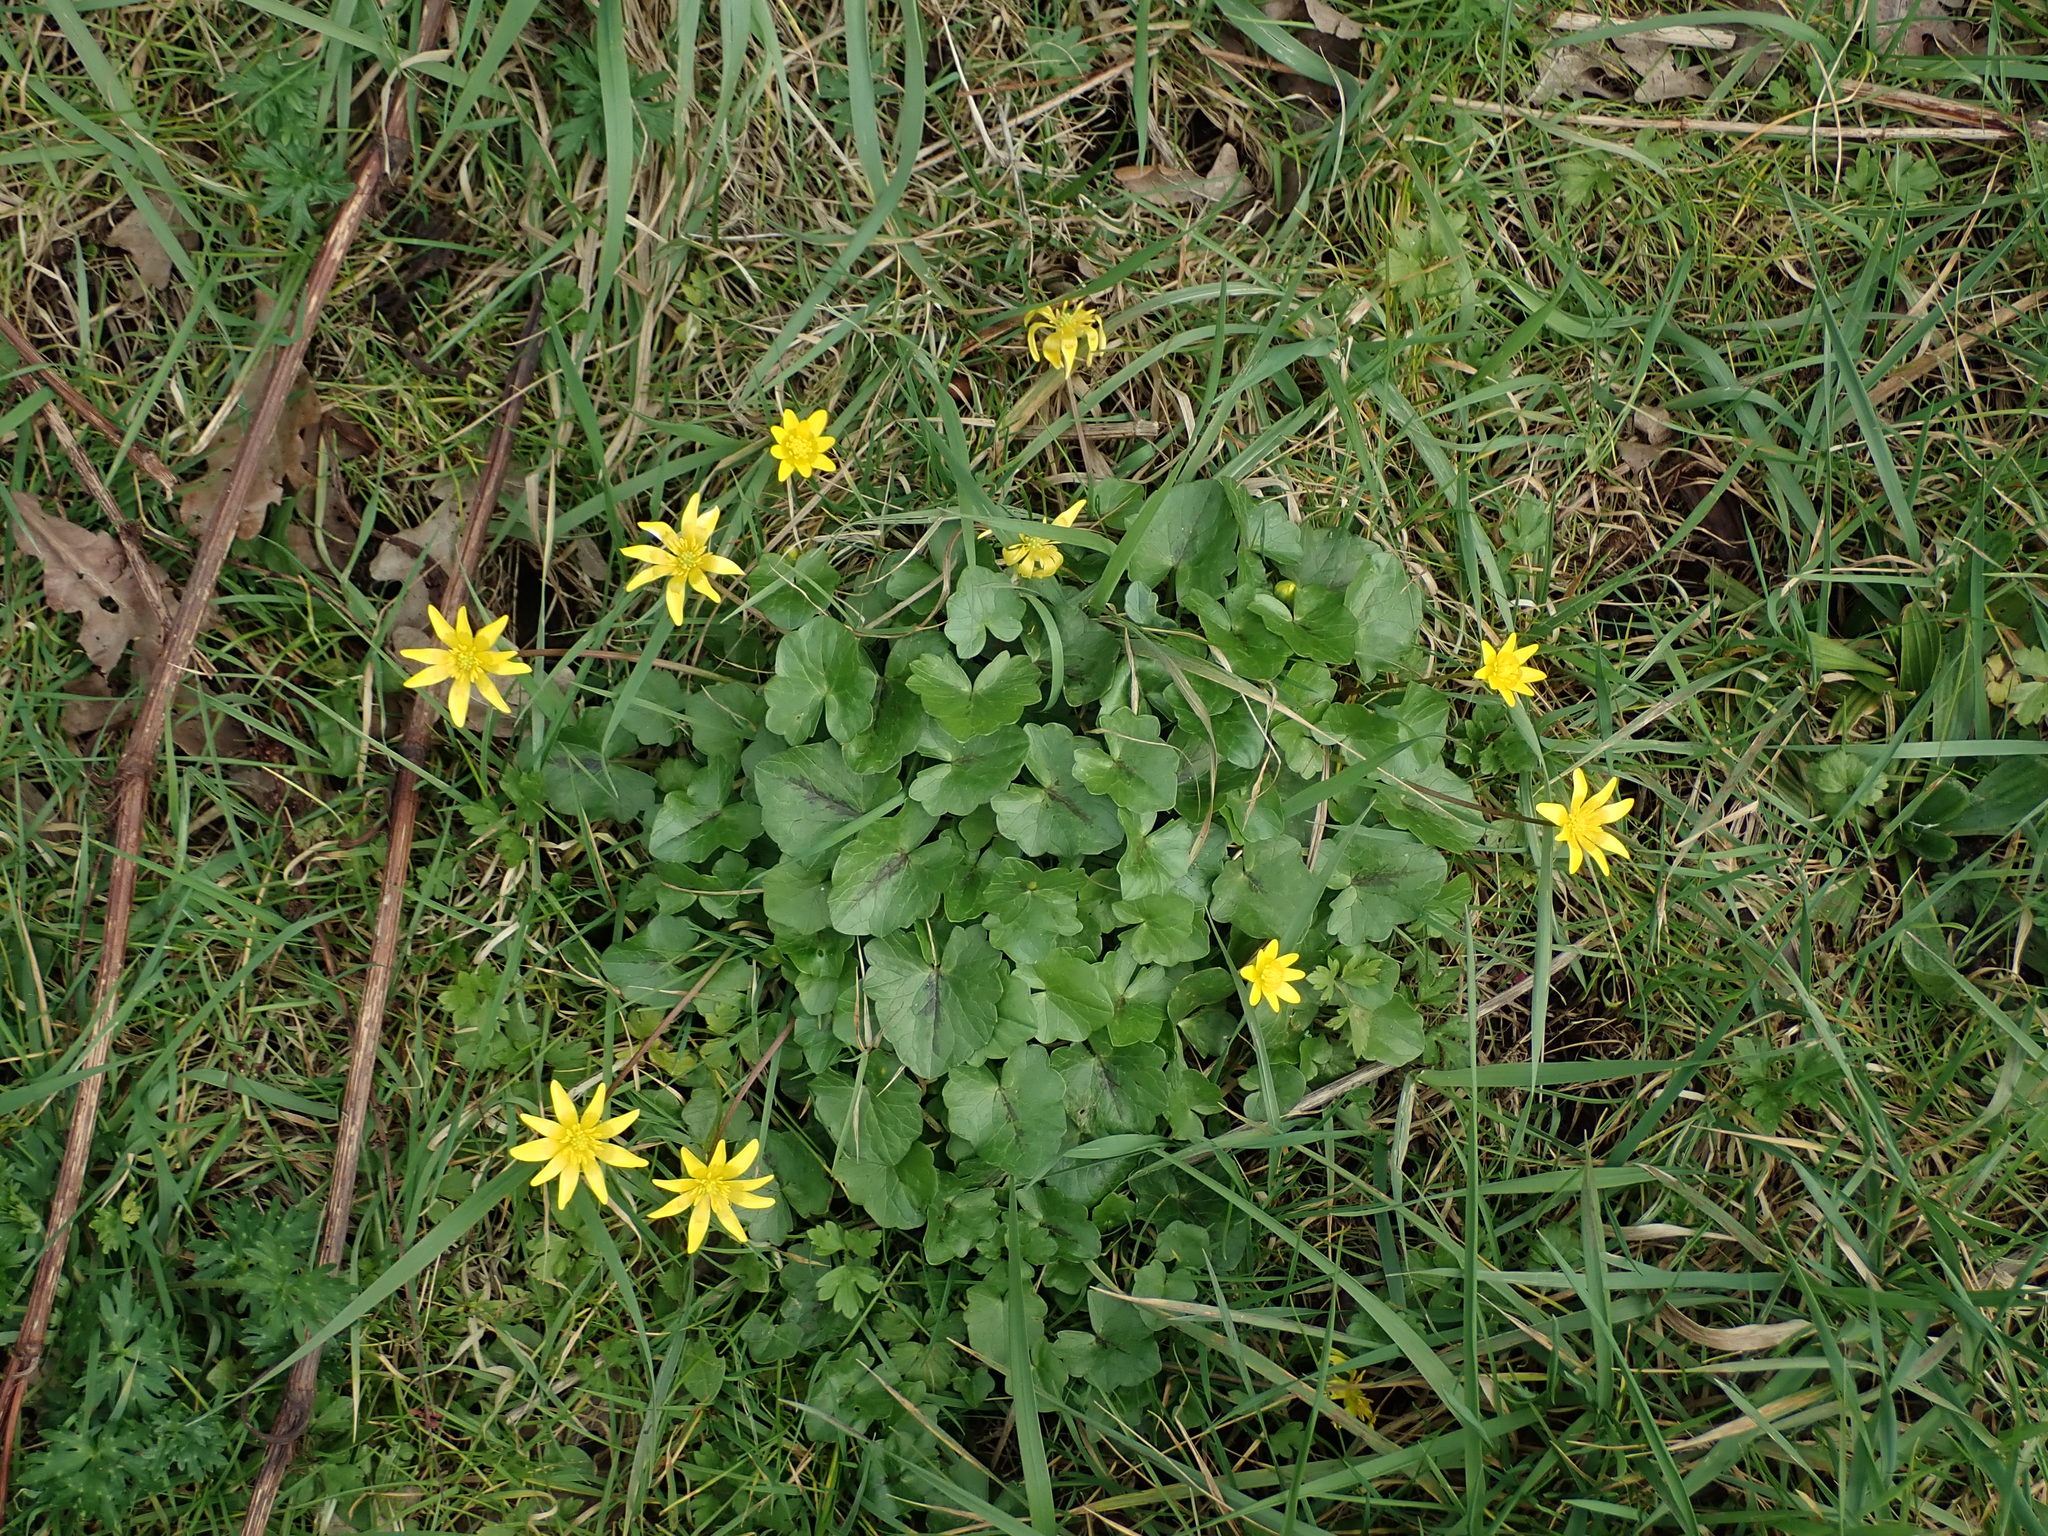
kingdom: Plantae
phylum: Tracheophyta
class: Magnoliopsida
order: Ranunculales
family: Ranunculaceae
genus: Ficaria
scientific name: Ficaria verna
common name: Lesser celandine
